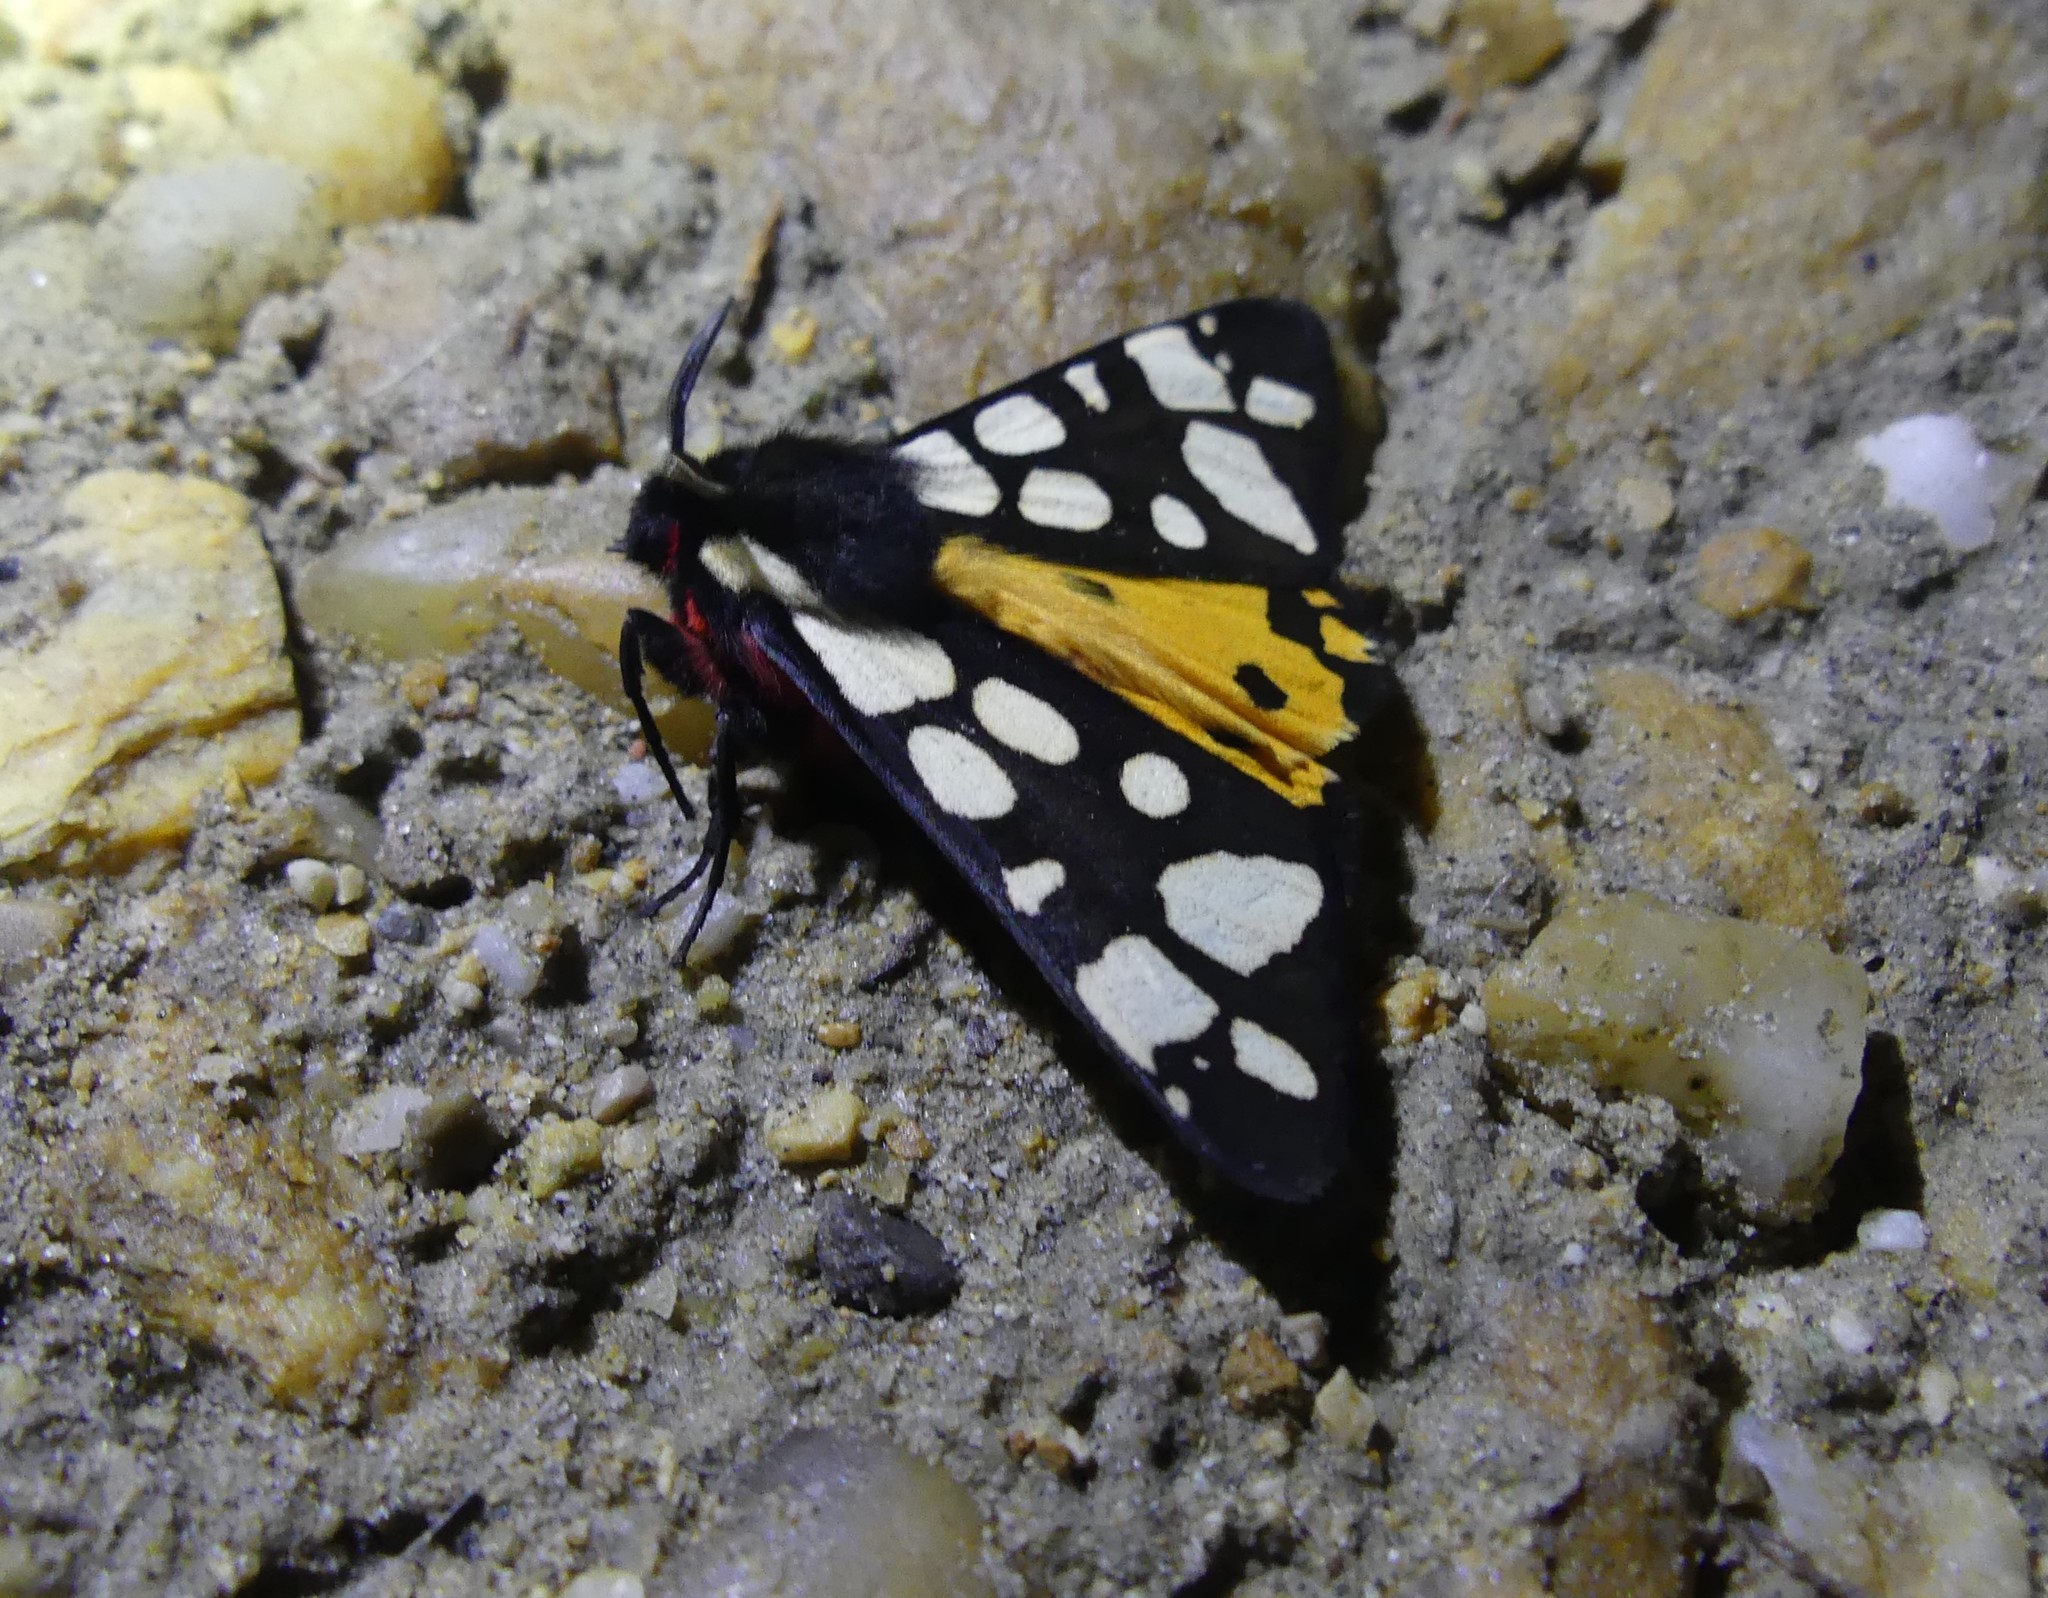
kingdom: Animalia
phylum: Arthropoda
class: Insecta
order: Lepidoptera
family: Erebidae
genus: Epicallia
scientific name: Epicallia villica
